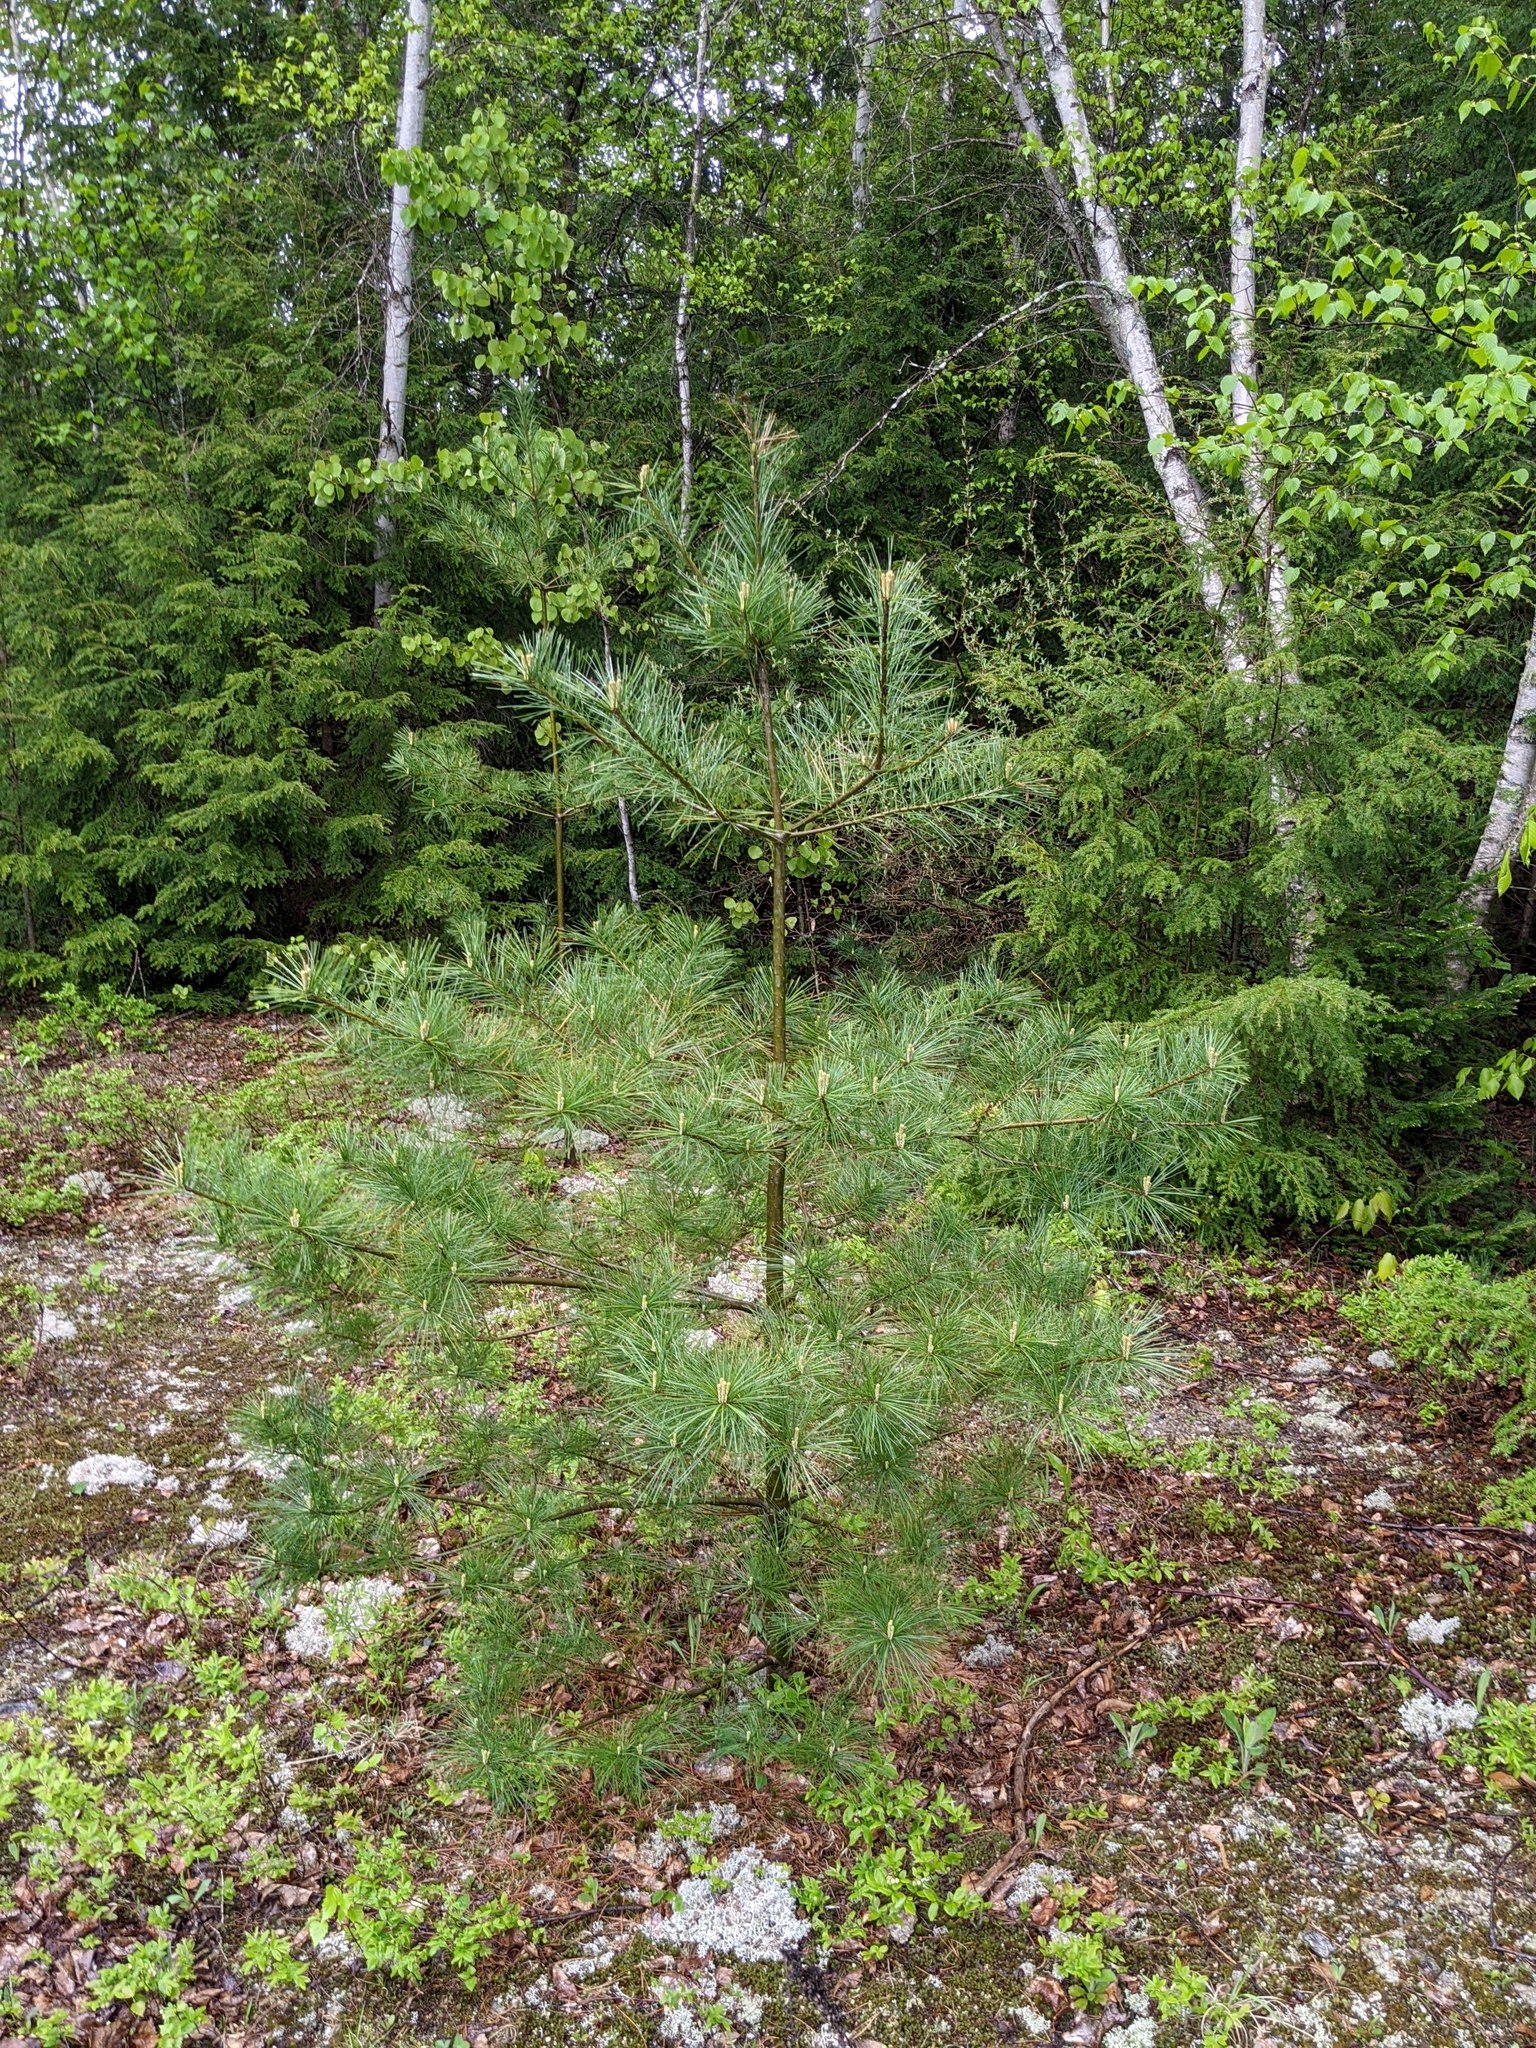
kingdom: Plantae
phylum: Tracheophyta
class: Pinopsida
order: Pinales
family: Pinaceae
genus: Pinus
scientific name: Pinus strobus
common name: Weymouth pine
